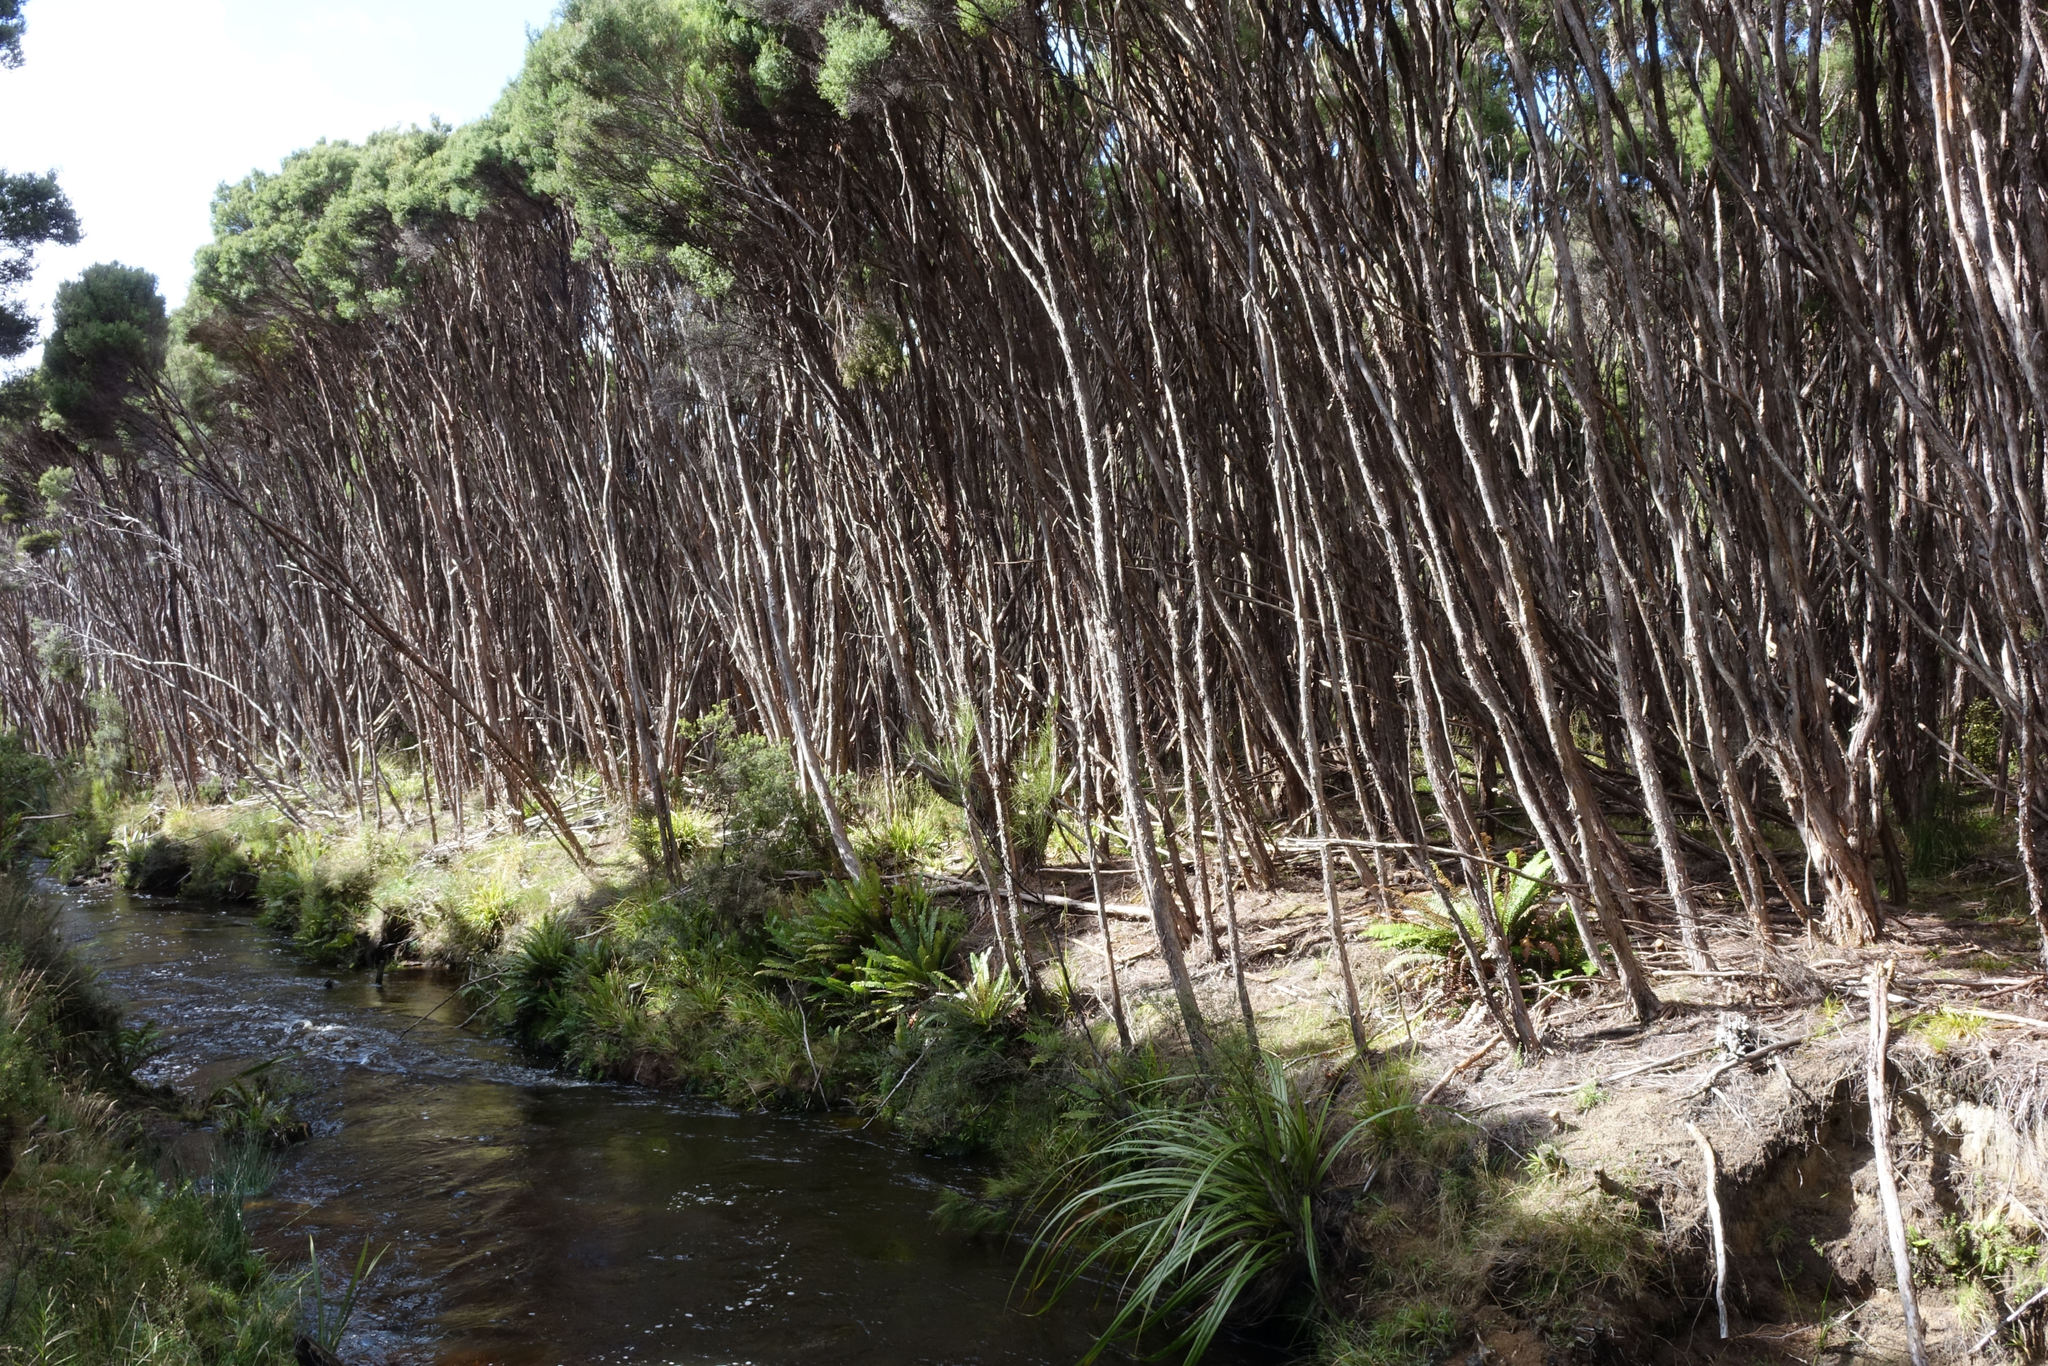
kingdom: Plantae
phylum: Tracheophyta
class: Magnoliopsida
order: Myrtales
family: Myrtaceae
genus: Leptospermum
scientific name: Leptospermum scoparium
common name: Broom tea-tree
